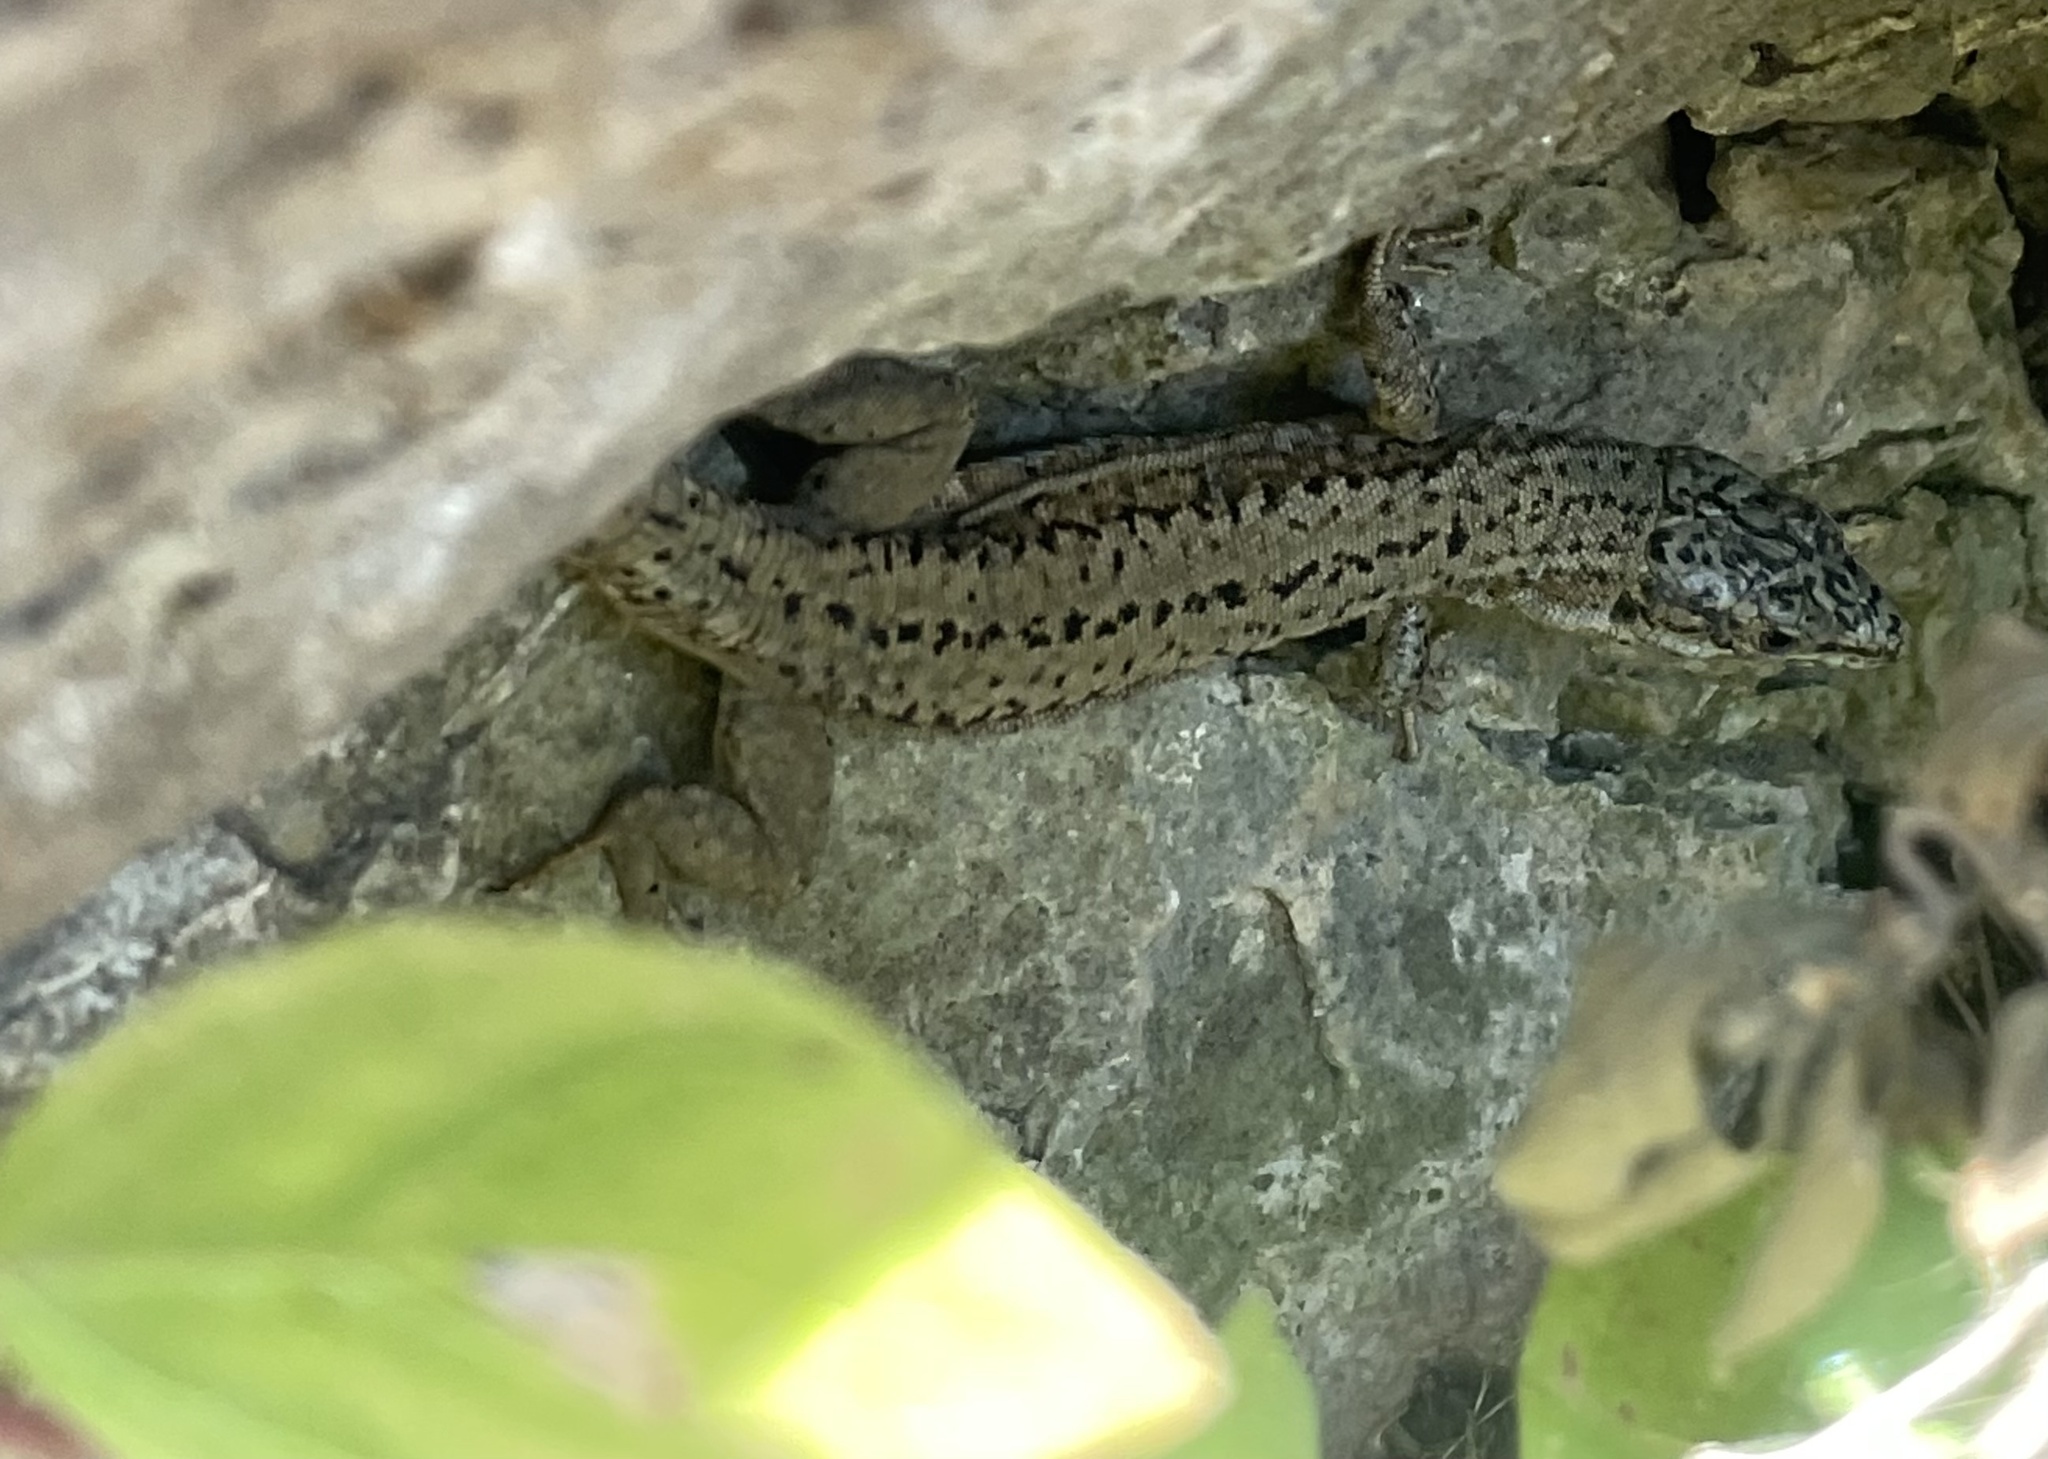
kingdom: Animalia
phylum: Chordata
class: Squamata
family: Lacertidae
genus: Podarcis
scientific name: Podarcis muralis
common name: Common wall lizard
